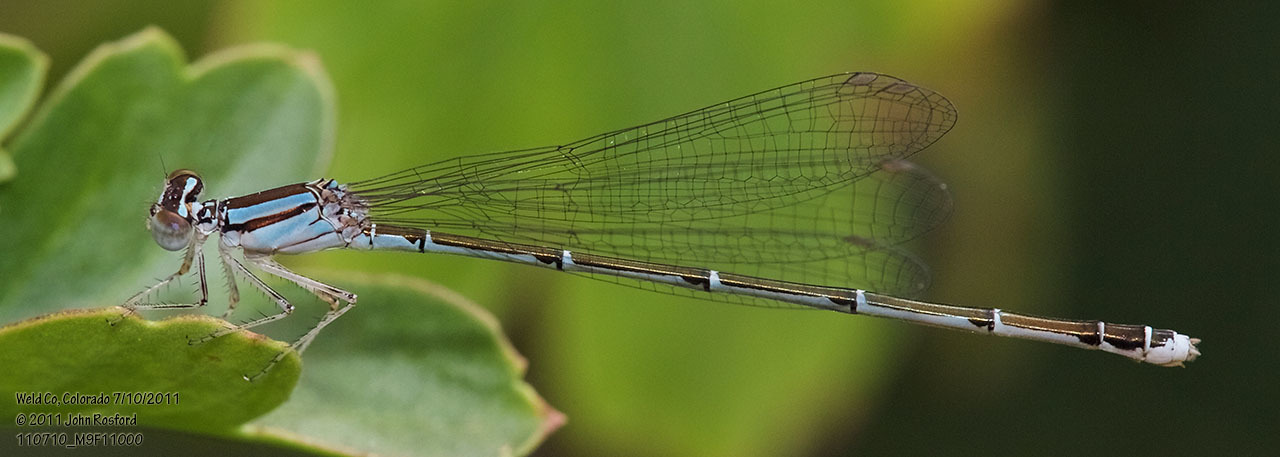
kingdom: Animalia
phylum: Arthropoda
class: Insecta
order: Odonata
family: Coenagrionidae
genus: Enallagma
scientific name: Enallagma signatum
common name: Orange bluet
